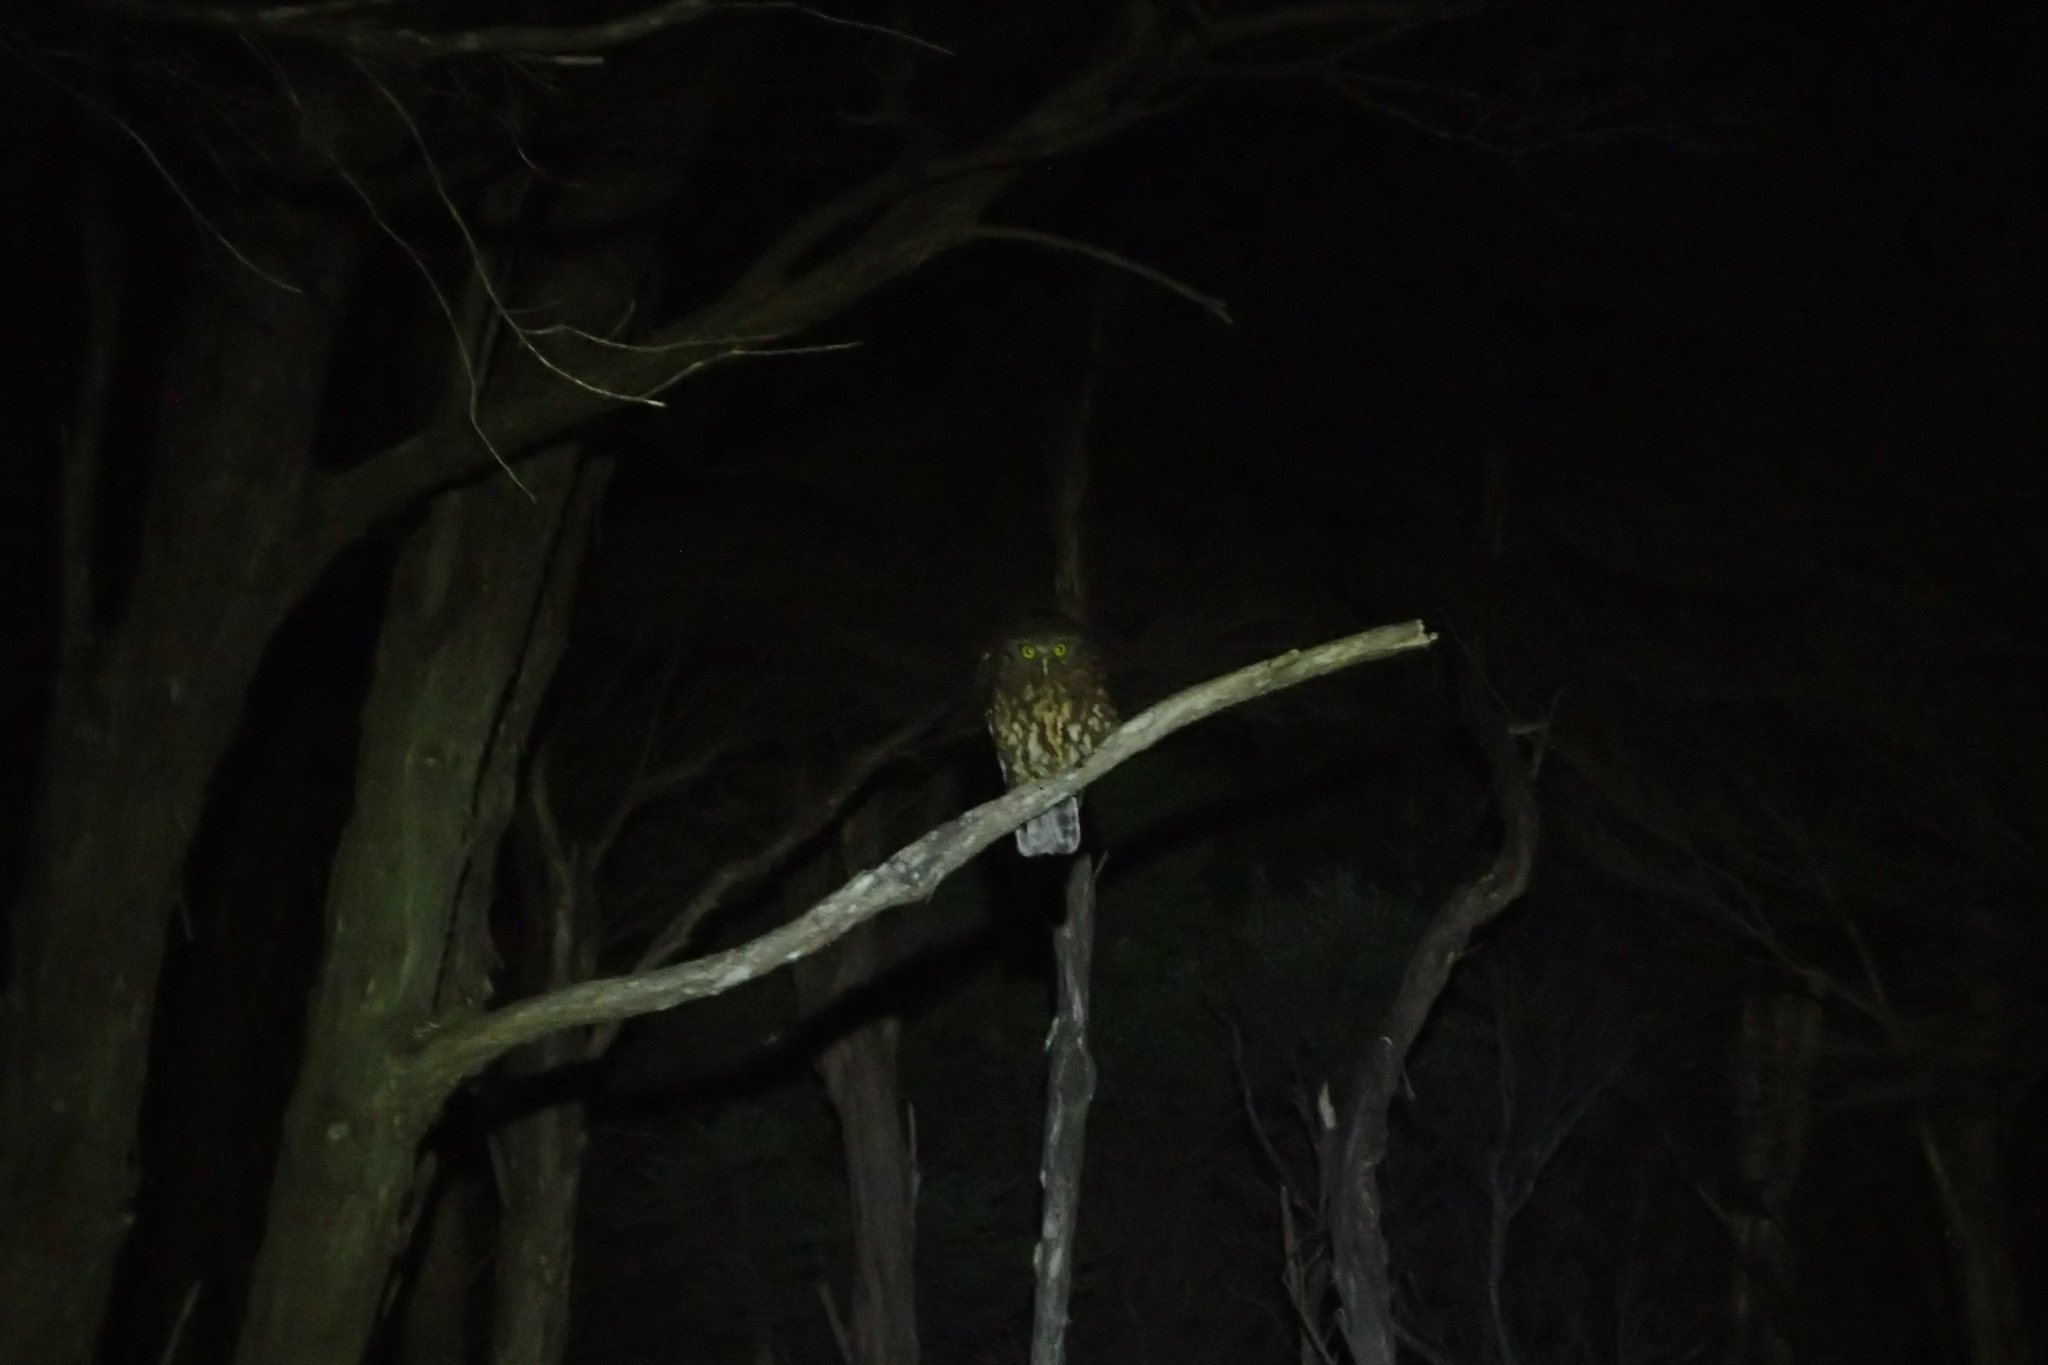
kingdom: Animalia
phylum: Chordata
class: Aves
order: Strigiformes
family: Strigidae
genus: Ninox
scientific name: Ninox novaeseelandiae
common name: Morepork
